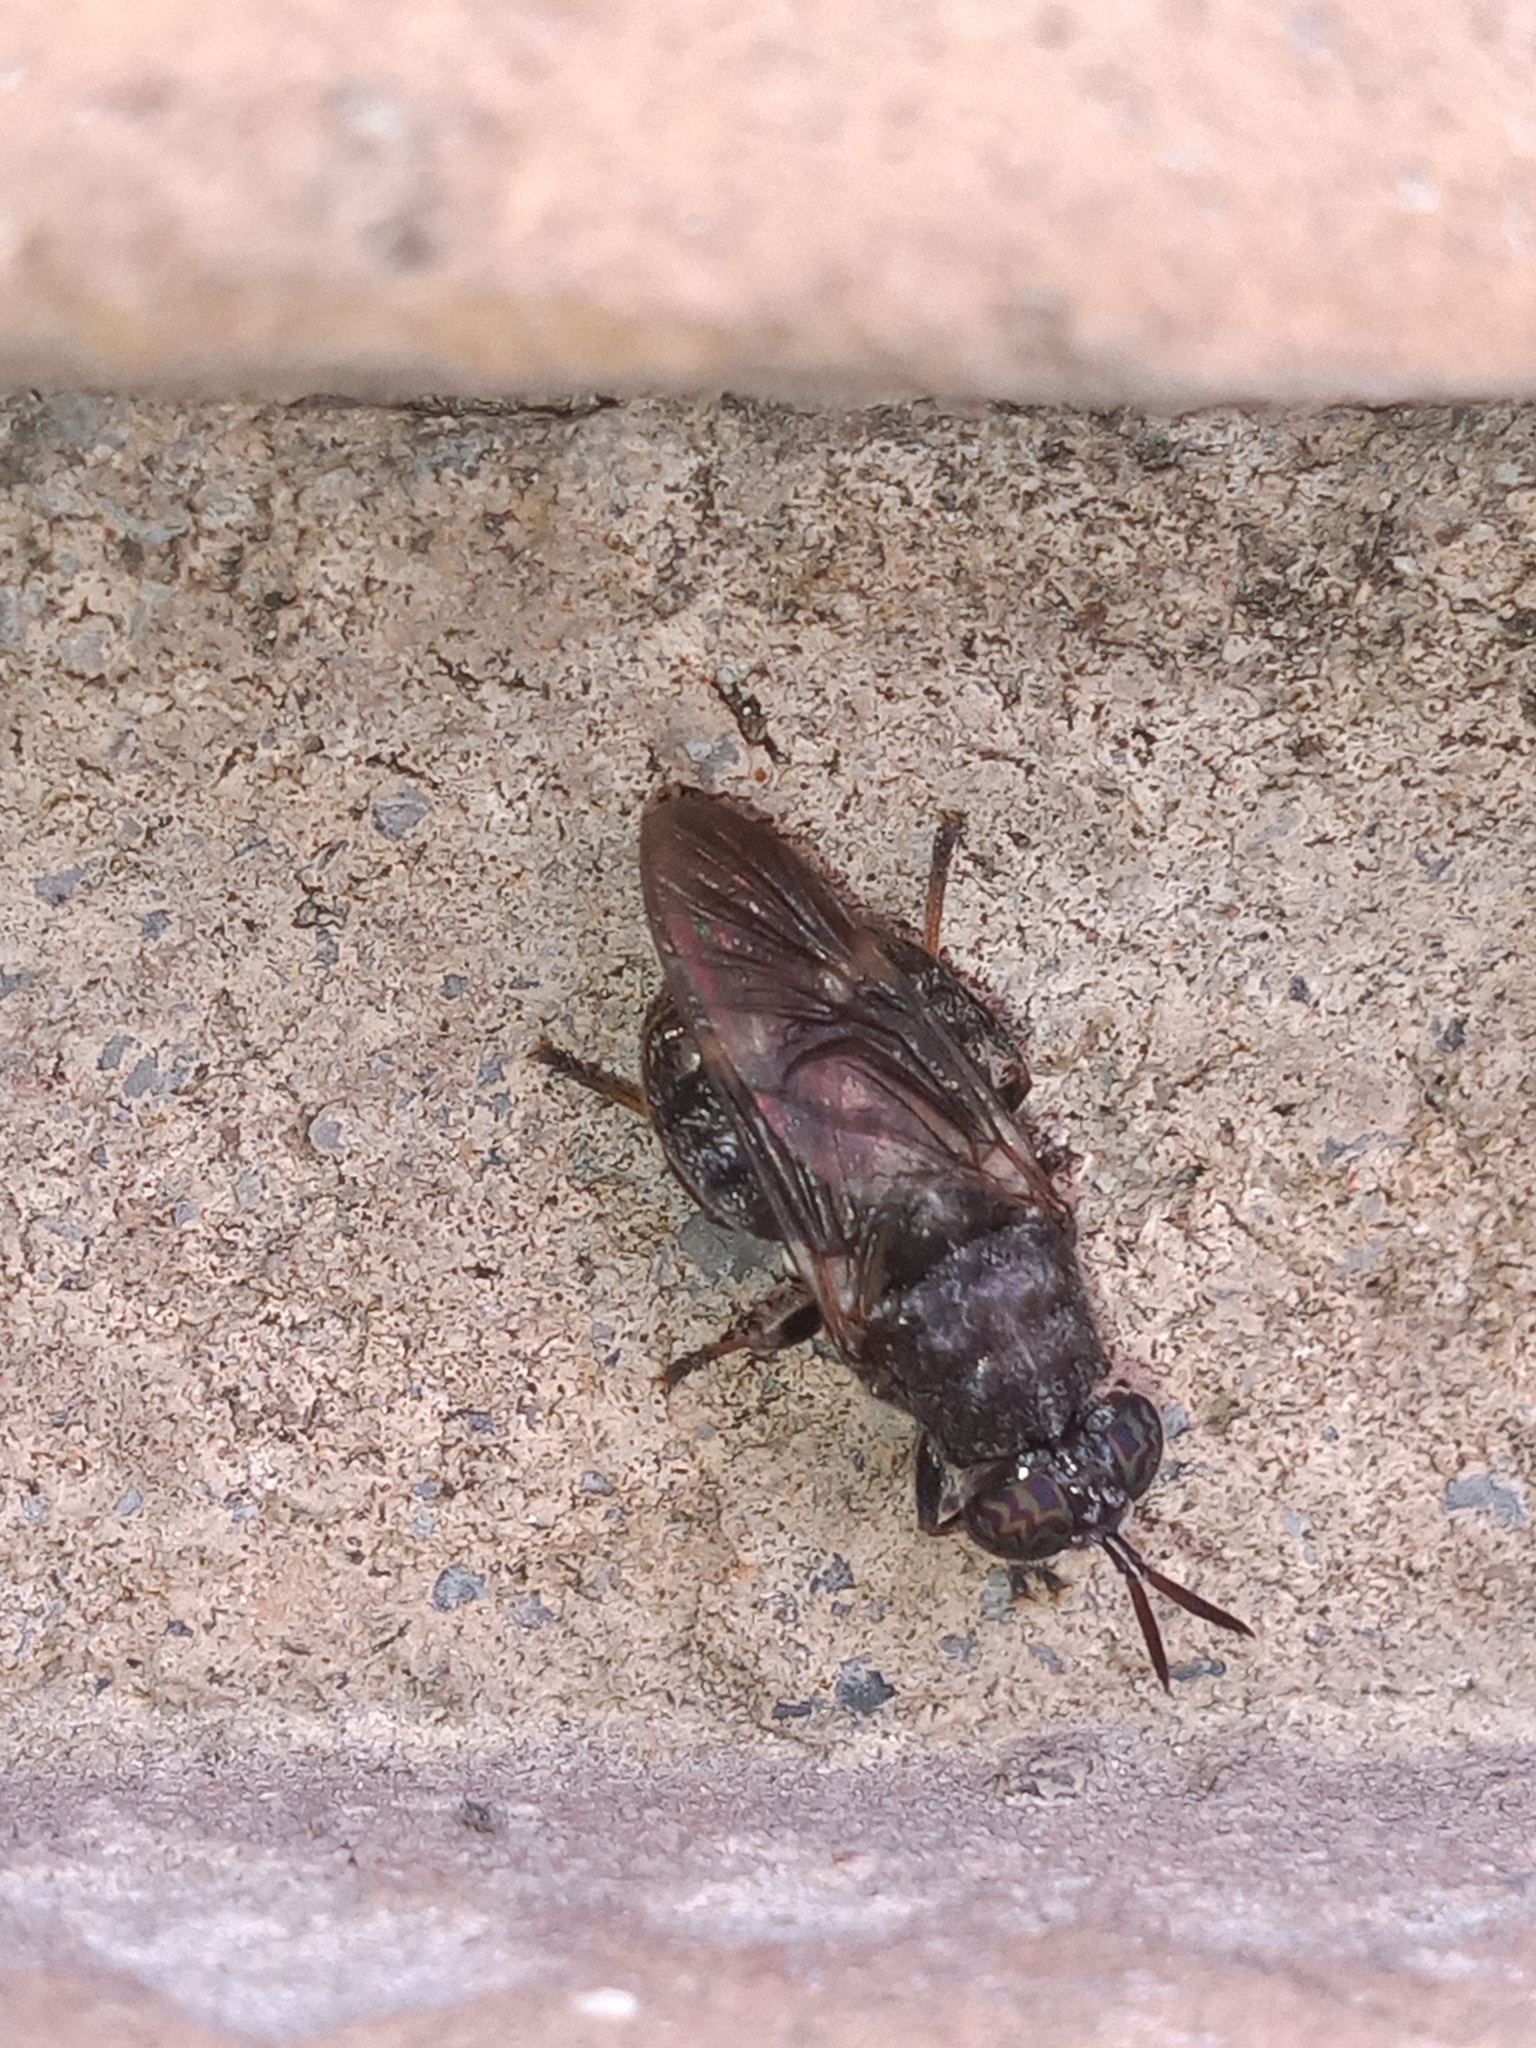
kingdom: Animalia
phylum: Arthropoda
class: Insecta
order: Diptera
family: Stratiomyidae
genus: Dicyphoma
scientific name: Dicyphoma schaefferi
